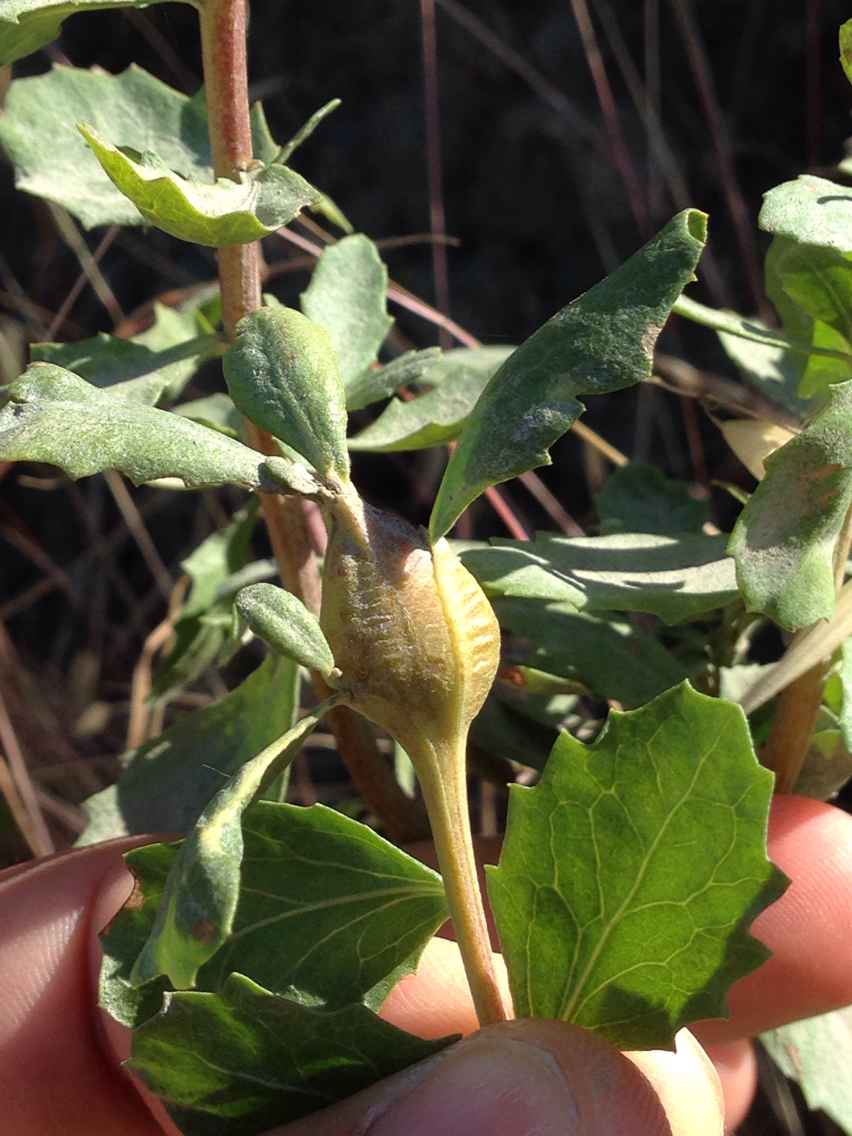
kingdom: Animalia
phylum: Arthropoda
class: Insecta
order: Lepidoptera
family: Gelechiidae
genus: Gnorimoschema
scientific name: Gnorimoschema baccharisella
